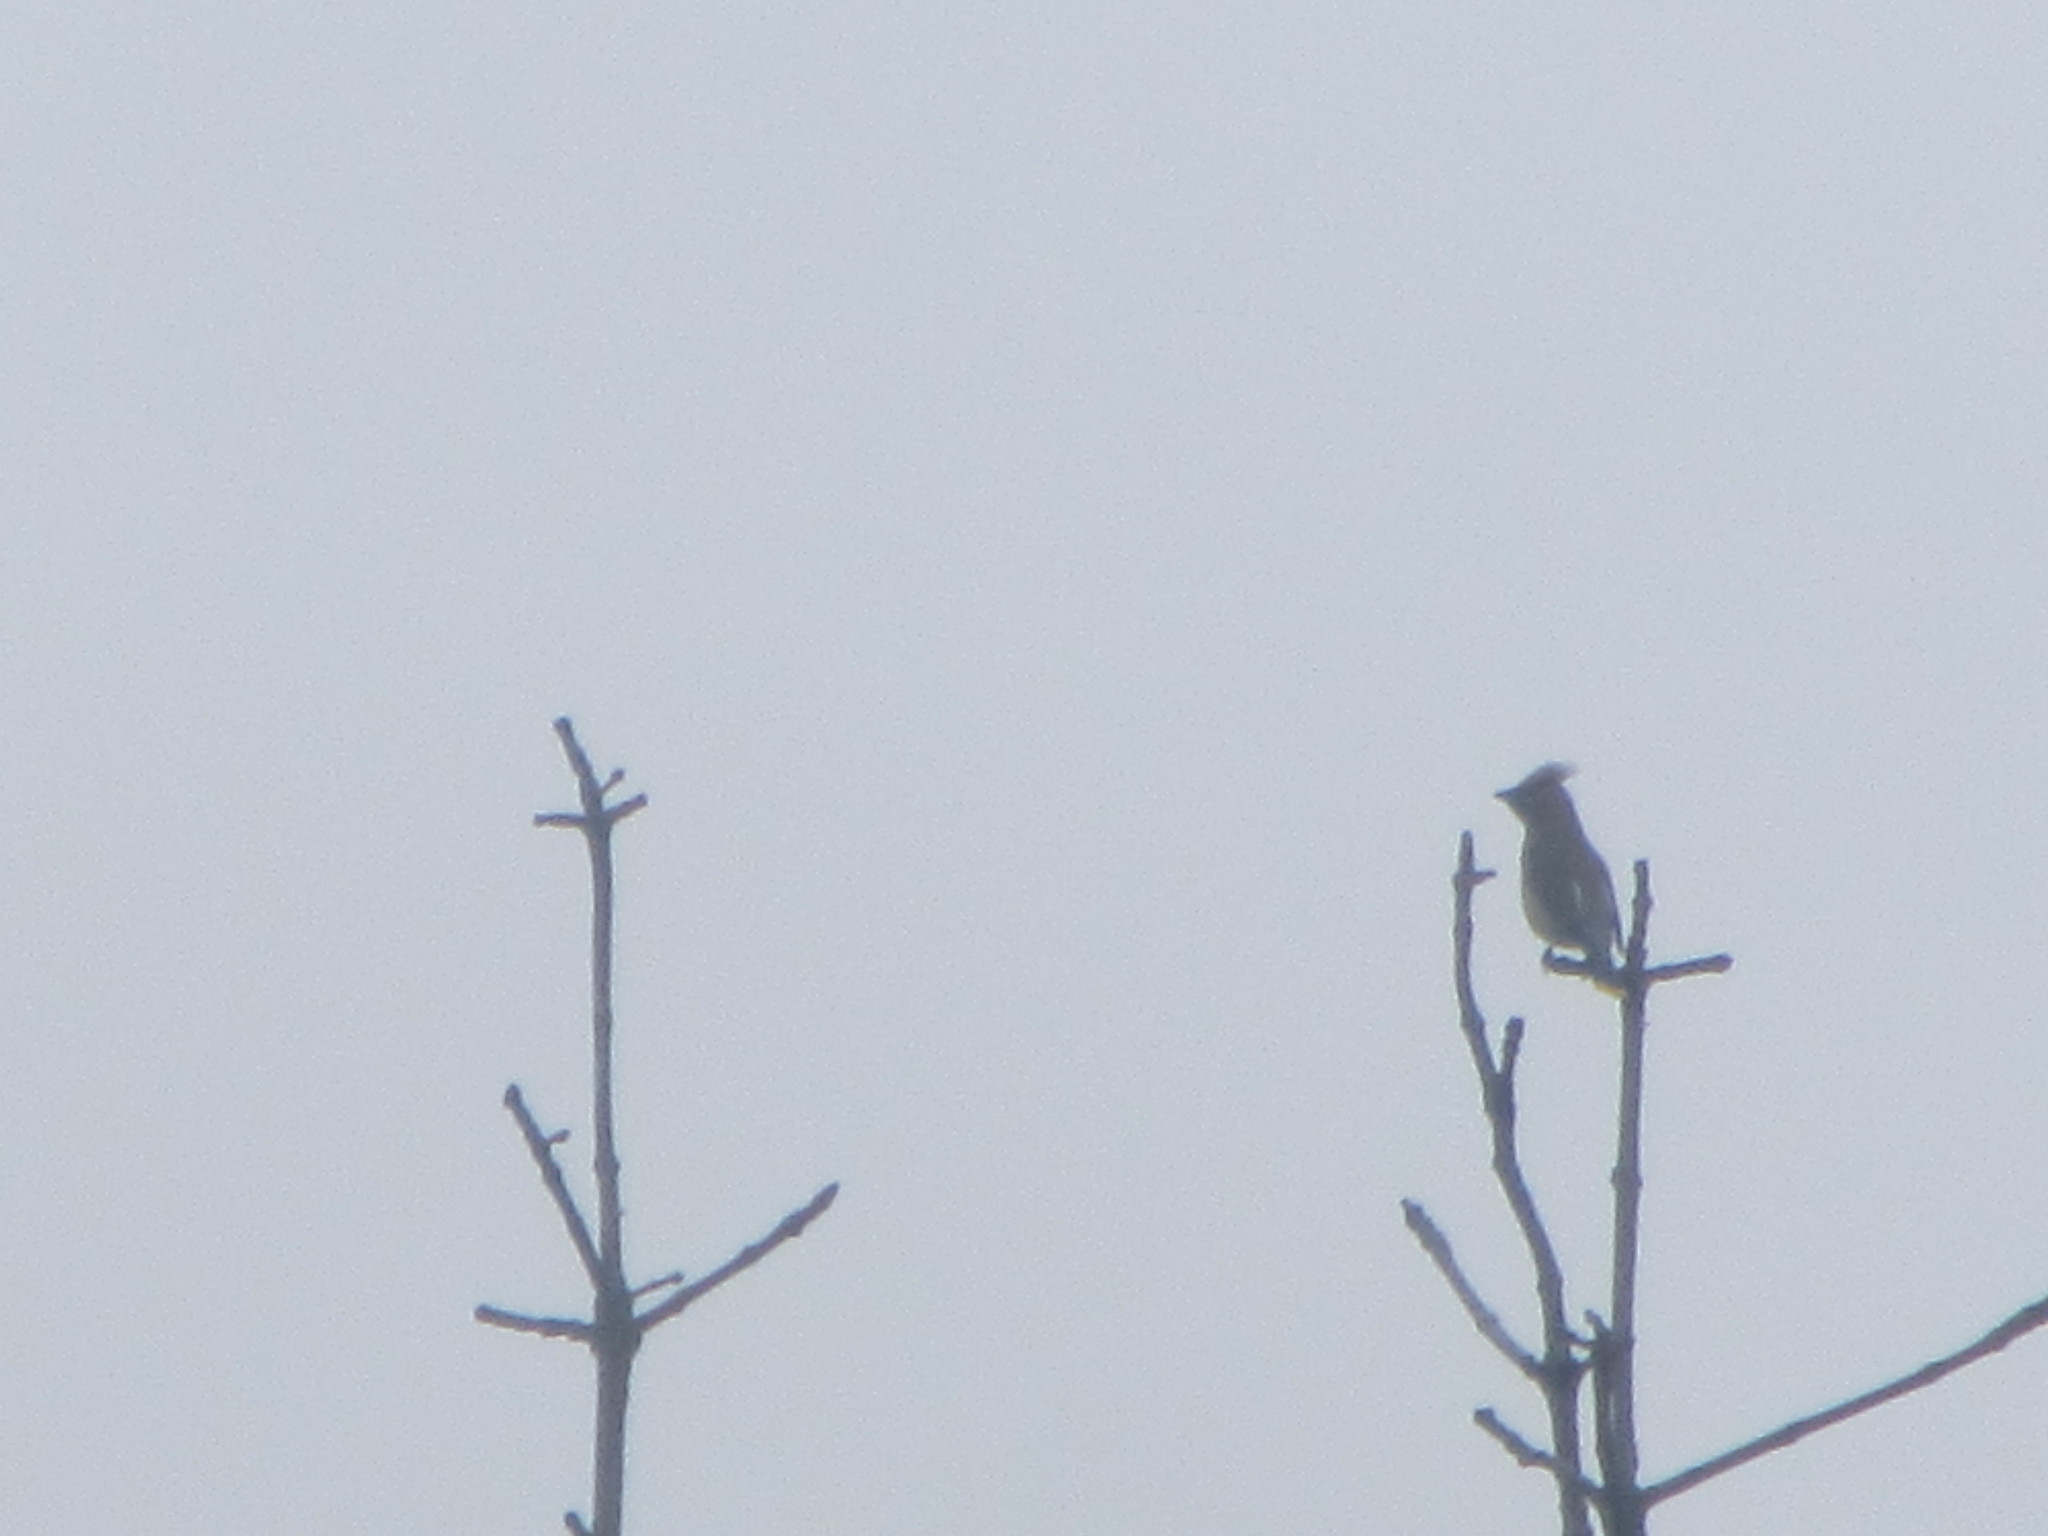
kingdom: Animalia
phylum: Chordata
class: Aves
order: Passeriformes
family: Bombycillidae
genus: Bombycilla
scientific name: Bombycilla cedrorum
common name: Cedar waxwing
